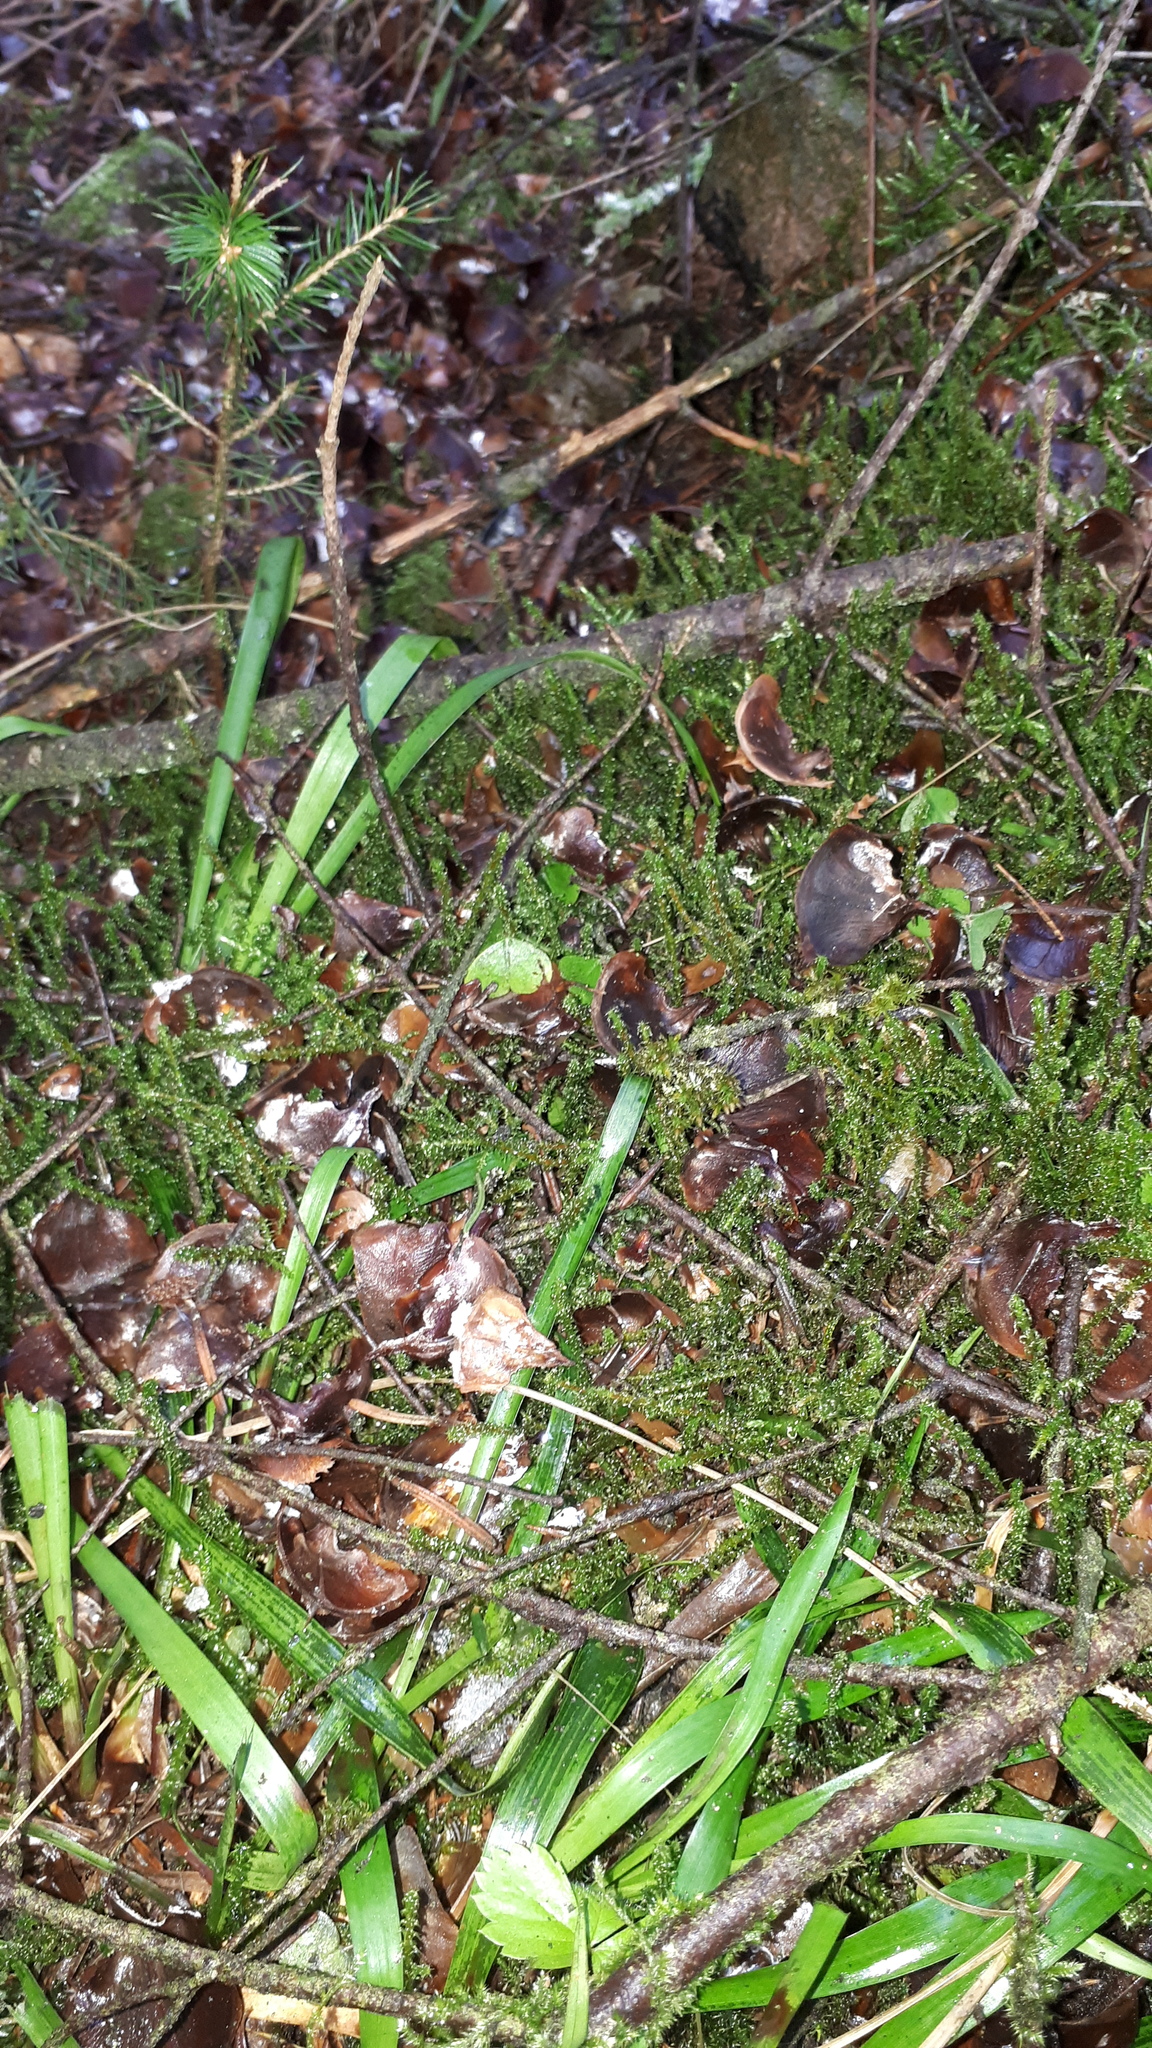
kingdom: Plantae
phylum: Bryophyta
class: Bryopsida
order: Hypnales
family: Hylocomiaceae
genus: Rhytidiadelphus
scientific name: Rhytidiadelphus squarrosus
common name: Springy turf-moss
